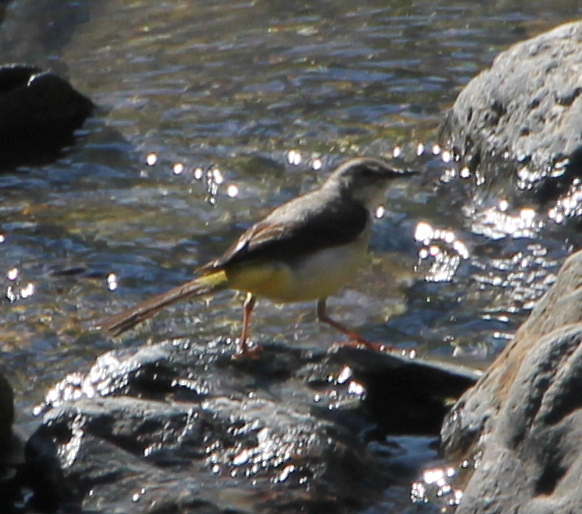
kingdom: Animalia
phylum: Chordata
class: Aves
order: Passeriformes
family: Motacillidae
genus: Motacilla
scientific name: Motacilla cinerea
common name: Grey wagtail
